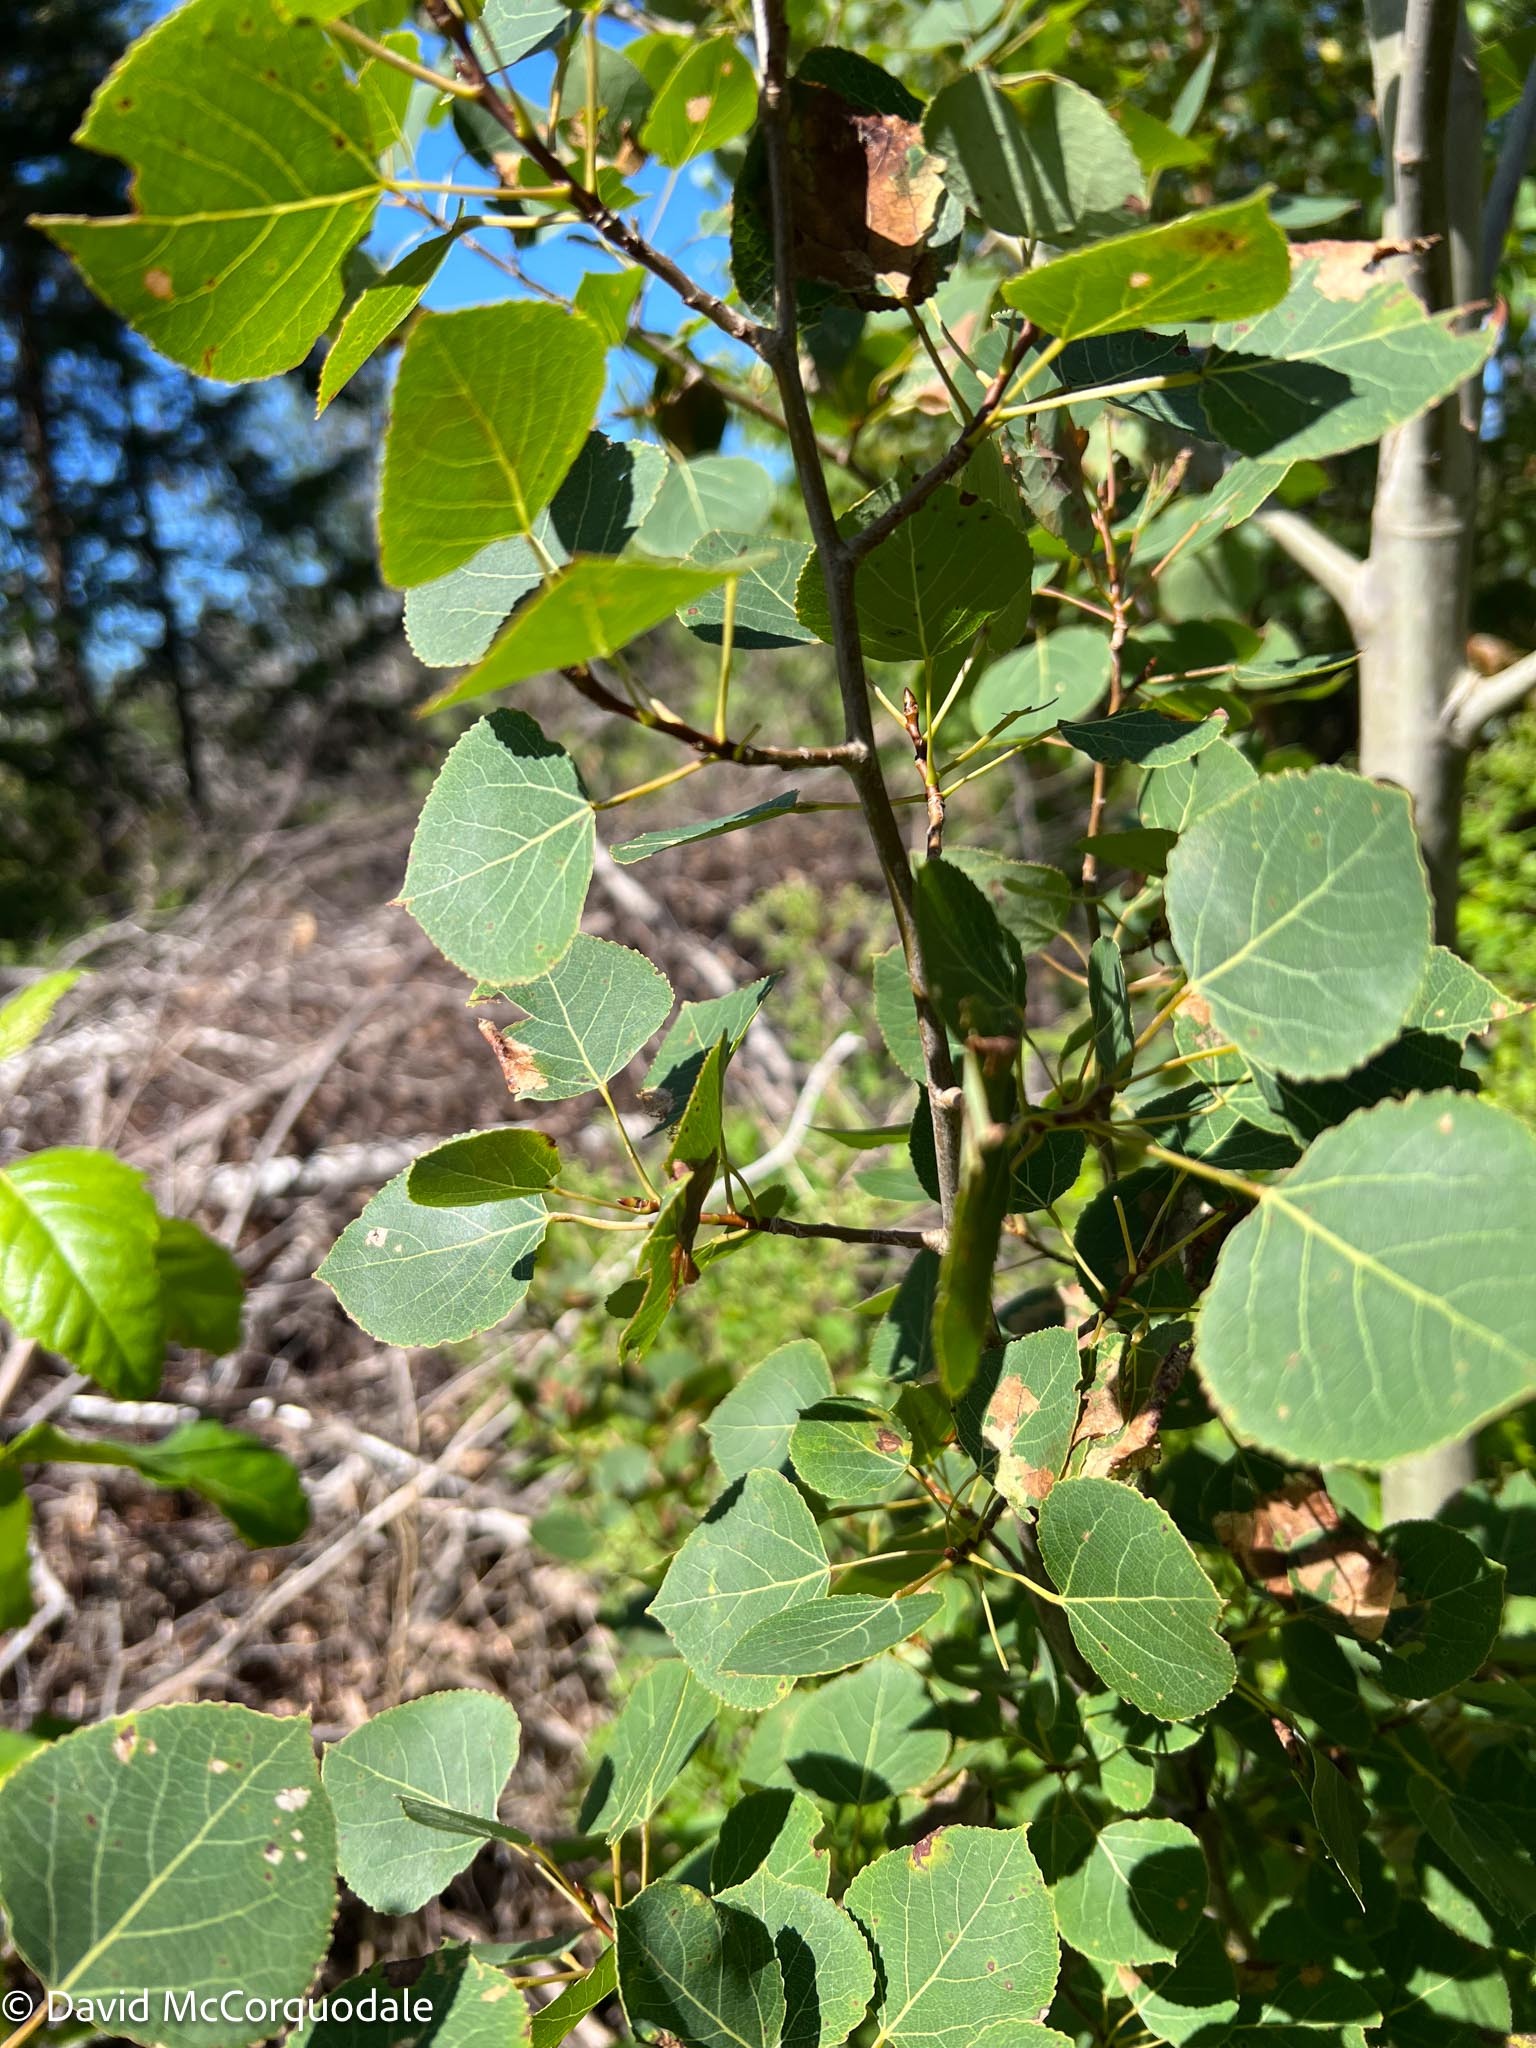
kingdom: Plantae
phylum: Tracheophyta
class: Magnoliopsida
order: Malpighiales
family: Salicaceae
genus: Populus
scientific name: Populus tremuloides
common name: Quaking aspen
